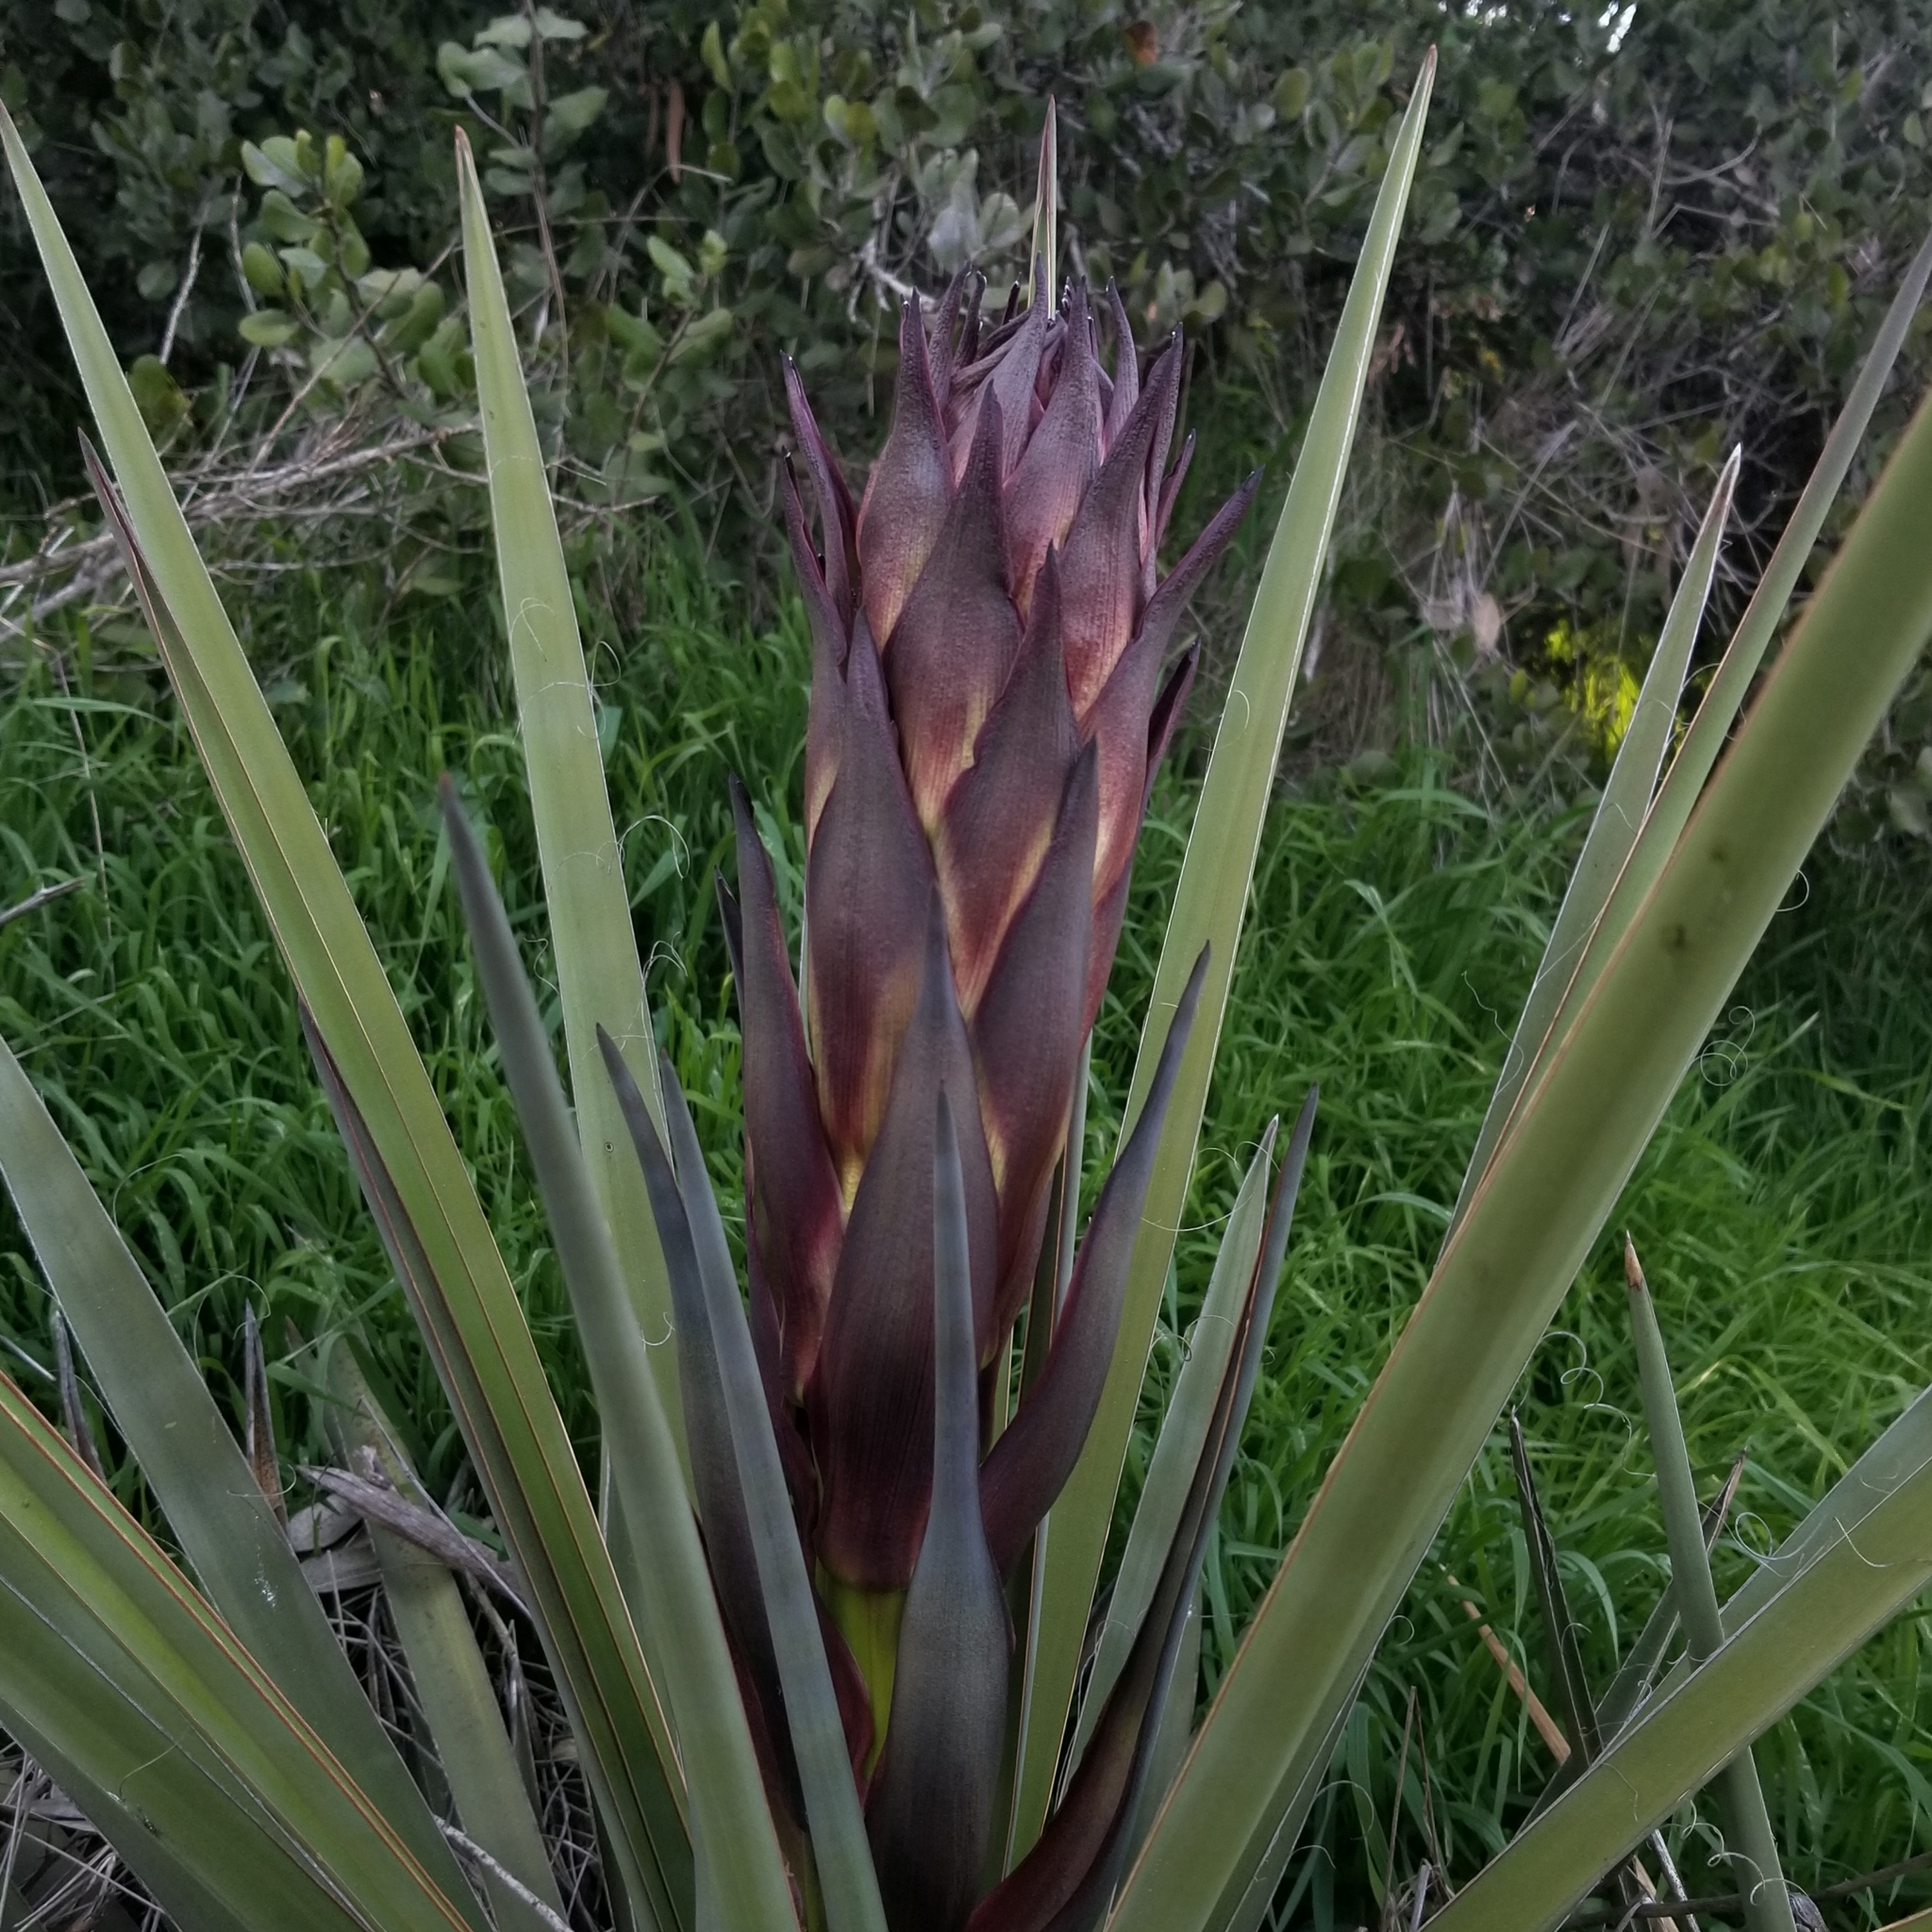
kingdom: Plantae
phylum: Tracheophyta
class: Liliopsida
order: Asparagales
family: Asparagaceae
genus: Yucca
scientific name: Yucca schidigera
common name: Mojave yucca
